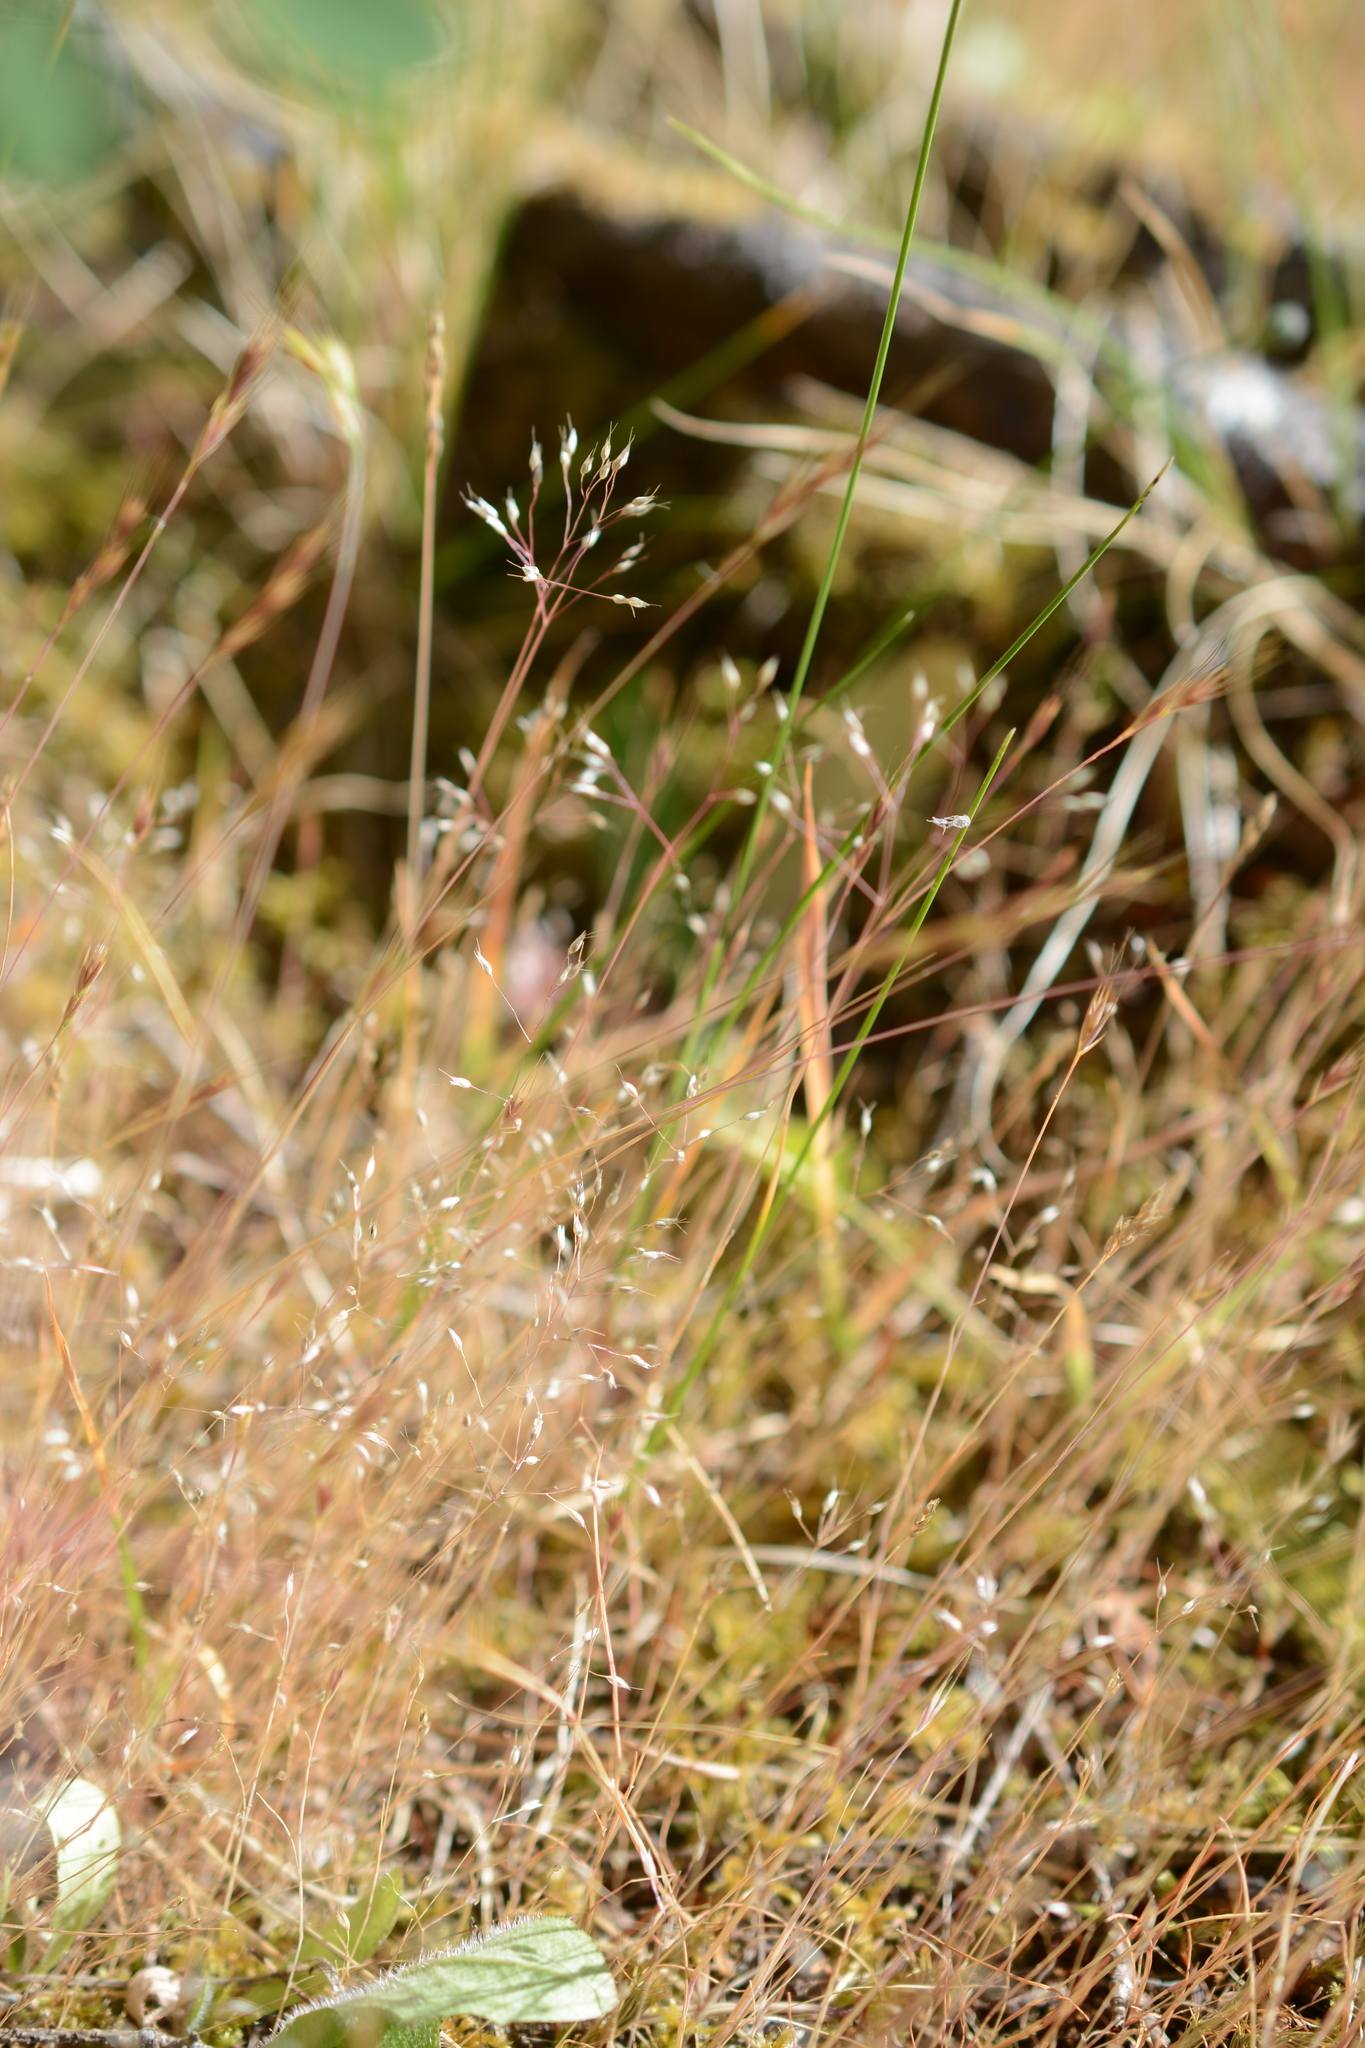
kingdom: Plantae
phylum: Tracheophyta
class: Liliopsida
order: Poales
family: Poaceae
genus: Aira
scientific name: Aira caryophyllea
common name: Silver hairgrass
